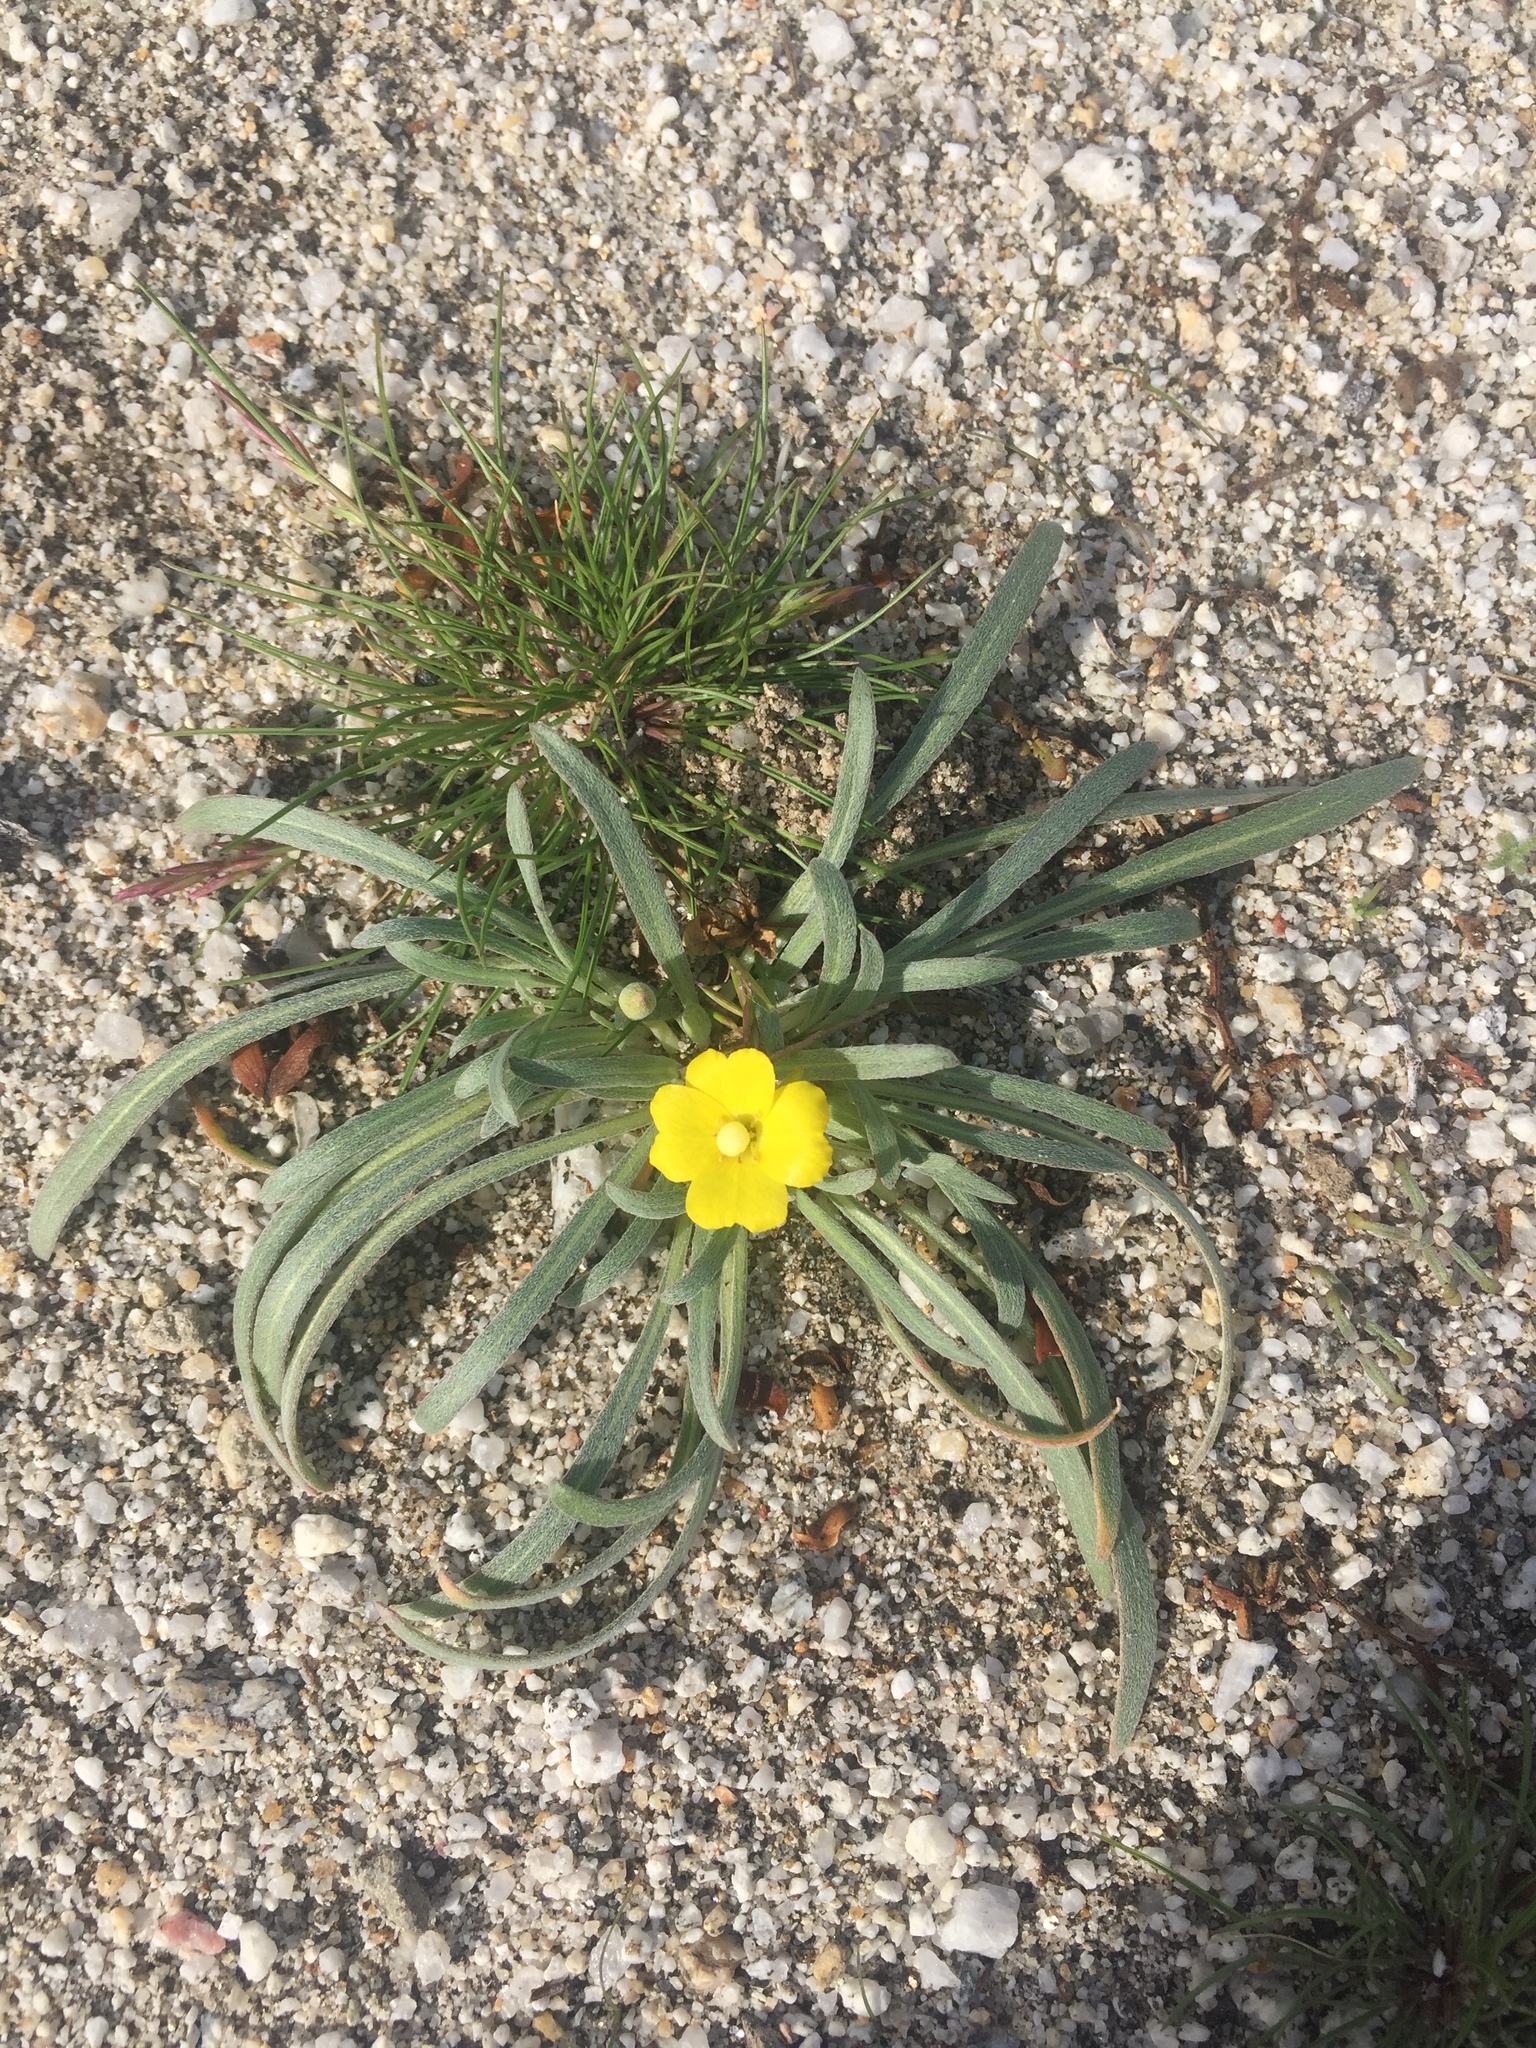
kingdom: Plantae
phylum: Tracheophyta
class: Magnoliopsida
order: Myrtales
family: Onagraceae
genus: Camissoniopsis
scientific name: Camissoniopsis pallida
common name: Paleyellow suncup
